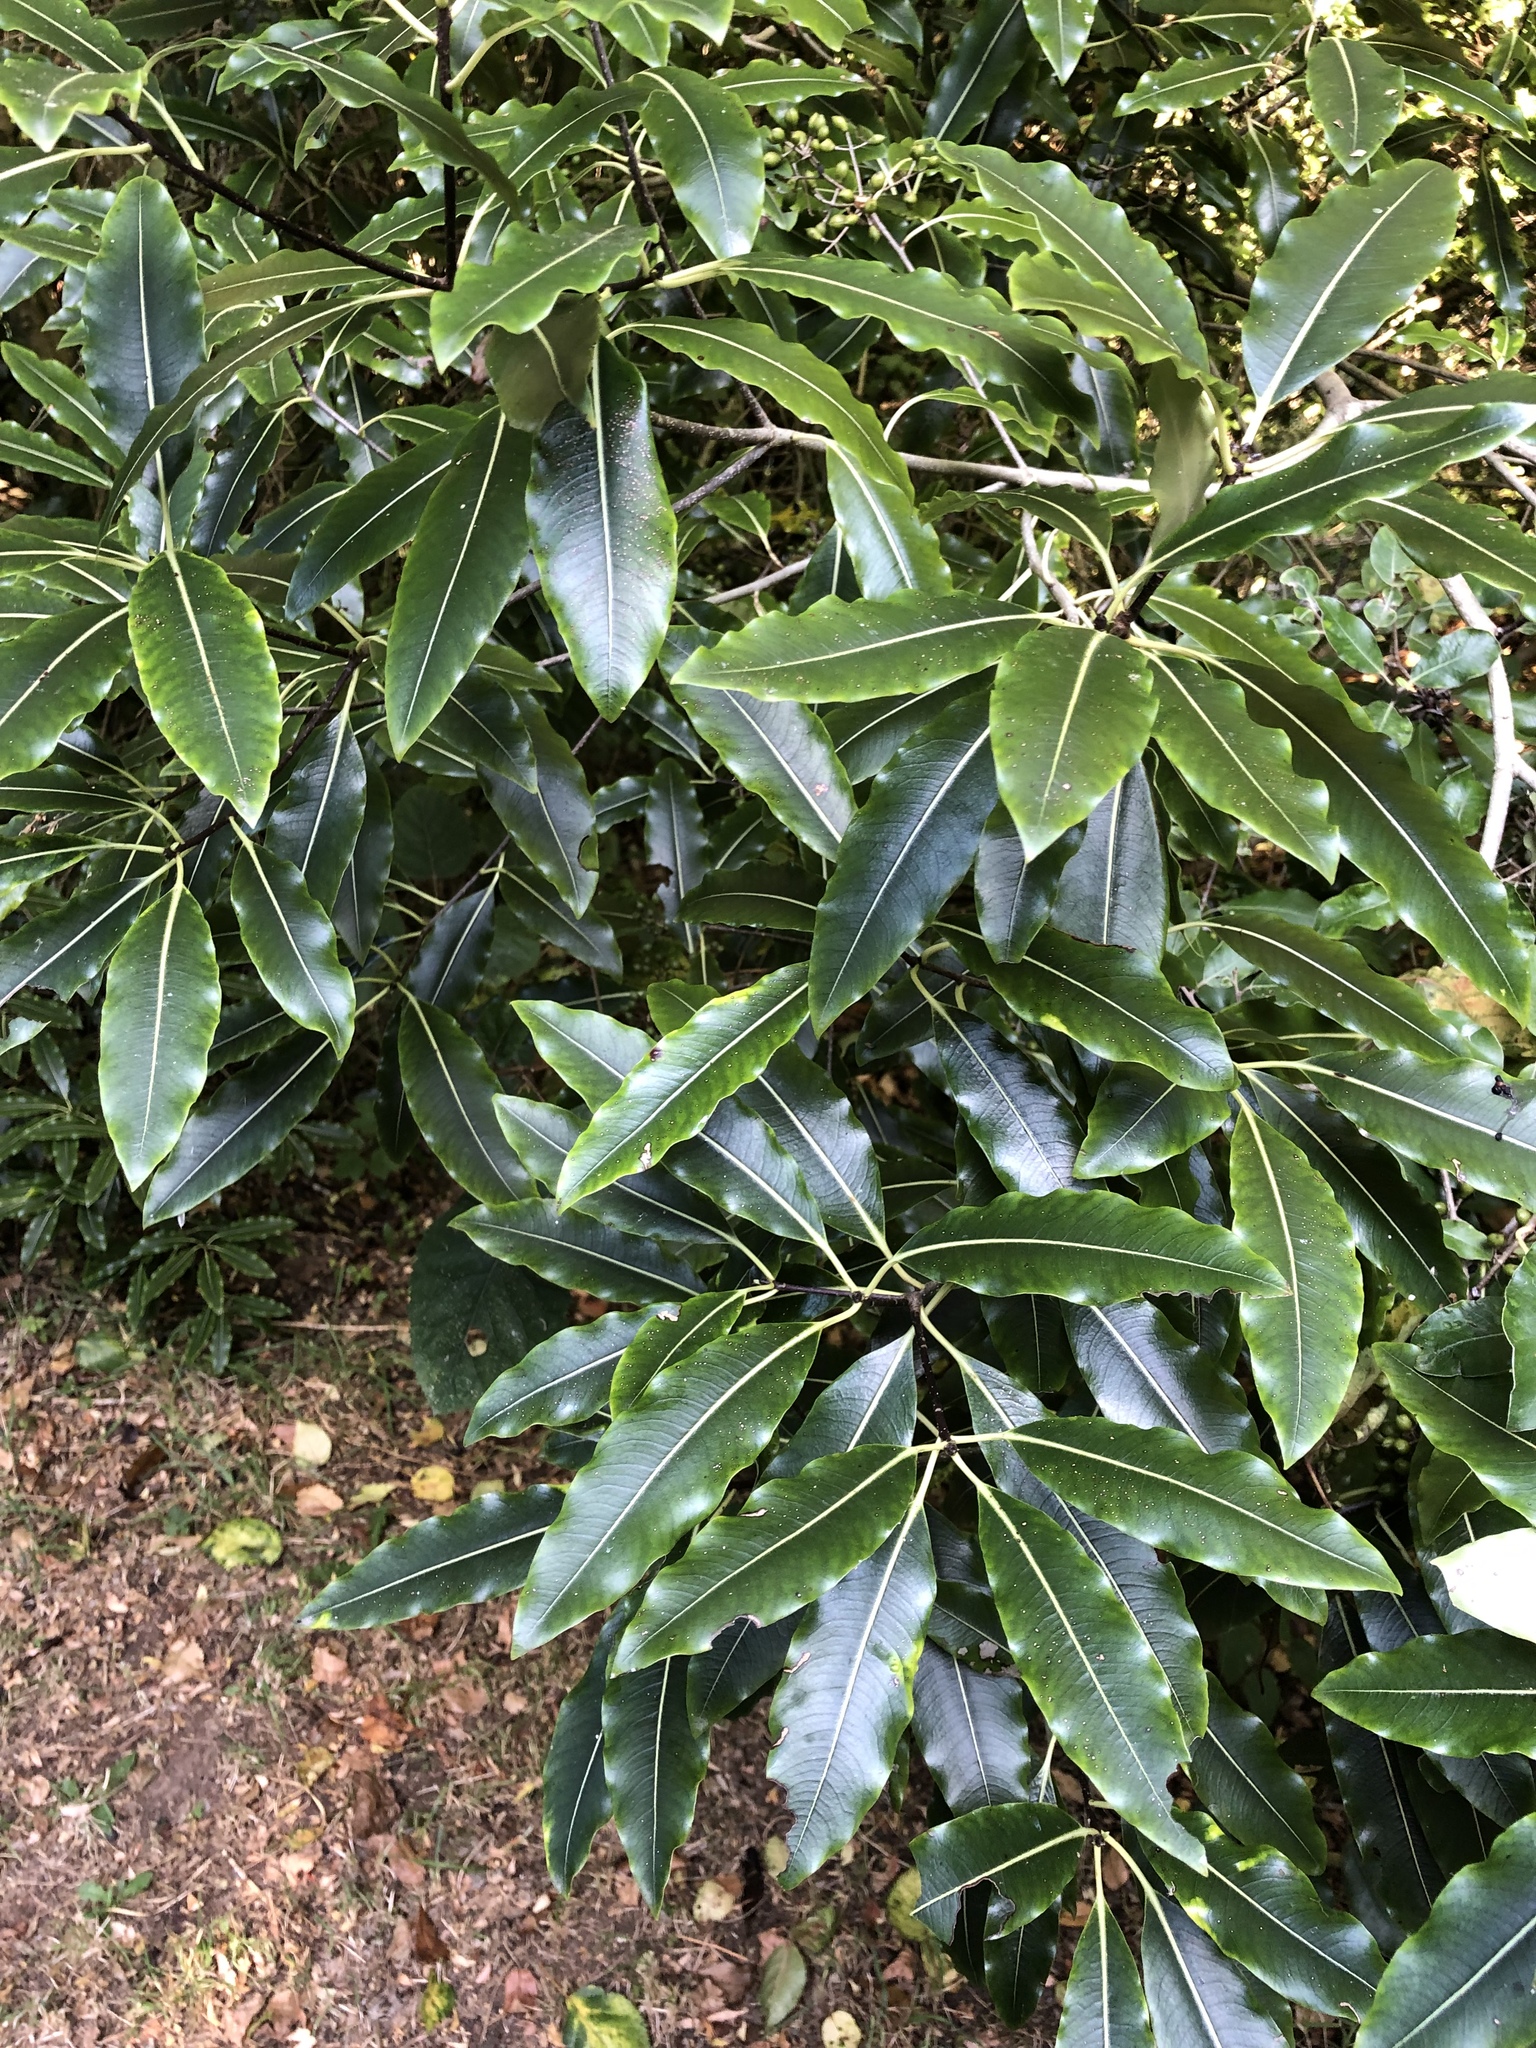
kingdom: Plantae
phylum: Tracheophyta
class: Magnoliopsida
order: Apiales
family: Pittosporaceae
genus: Pittosporum
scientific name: Pittosporum eugenioides
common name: Lemonwood
